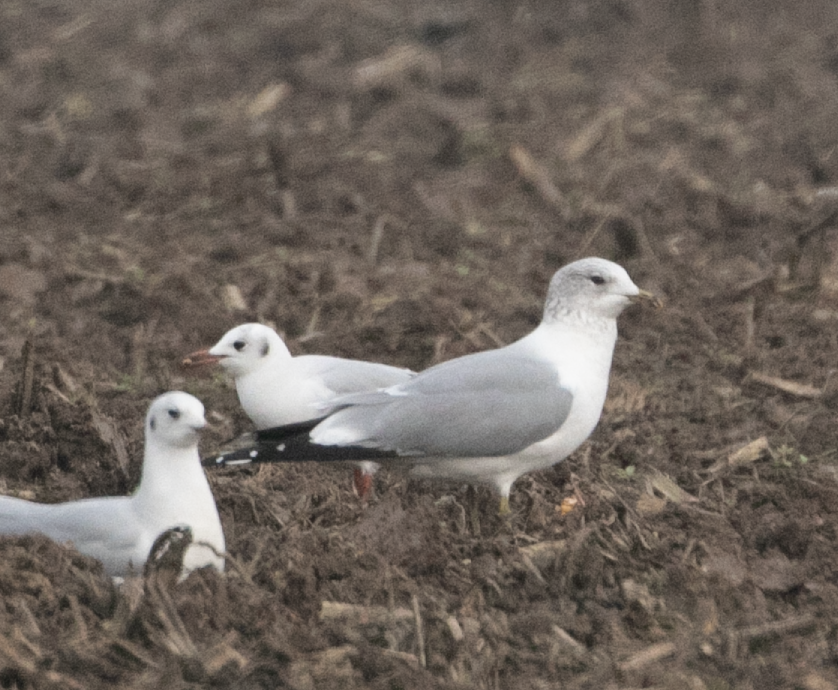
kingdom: Animalia
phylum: Chordata
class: Aves
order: Charadriiformes
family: Laridae
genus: Larus
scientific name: Larus canus
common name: Mew gull
